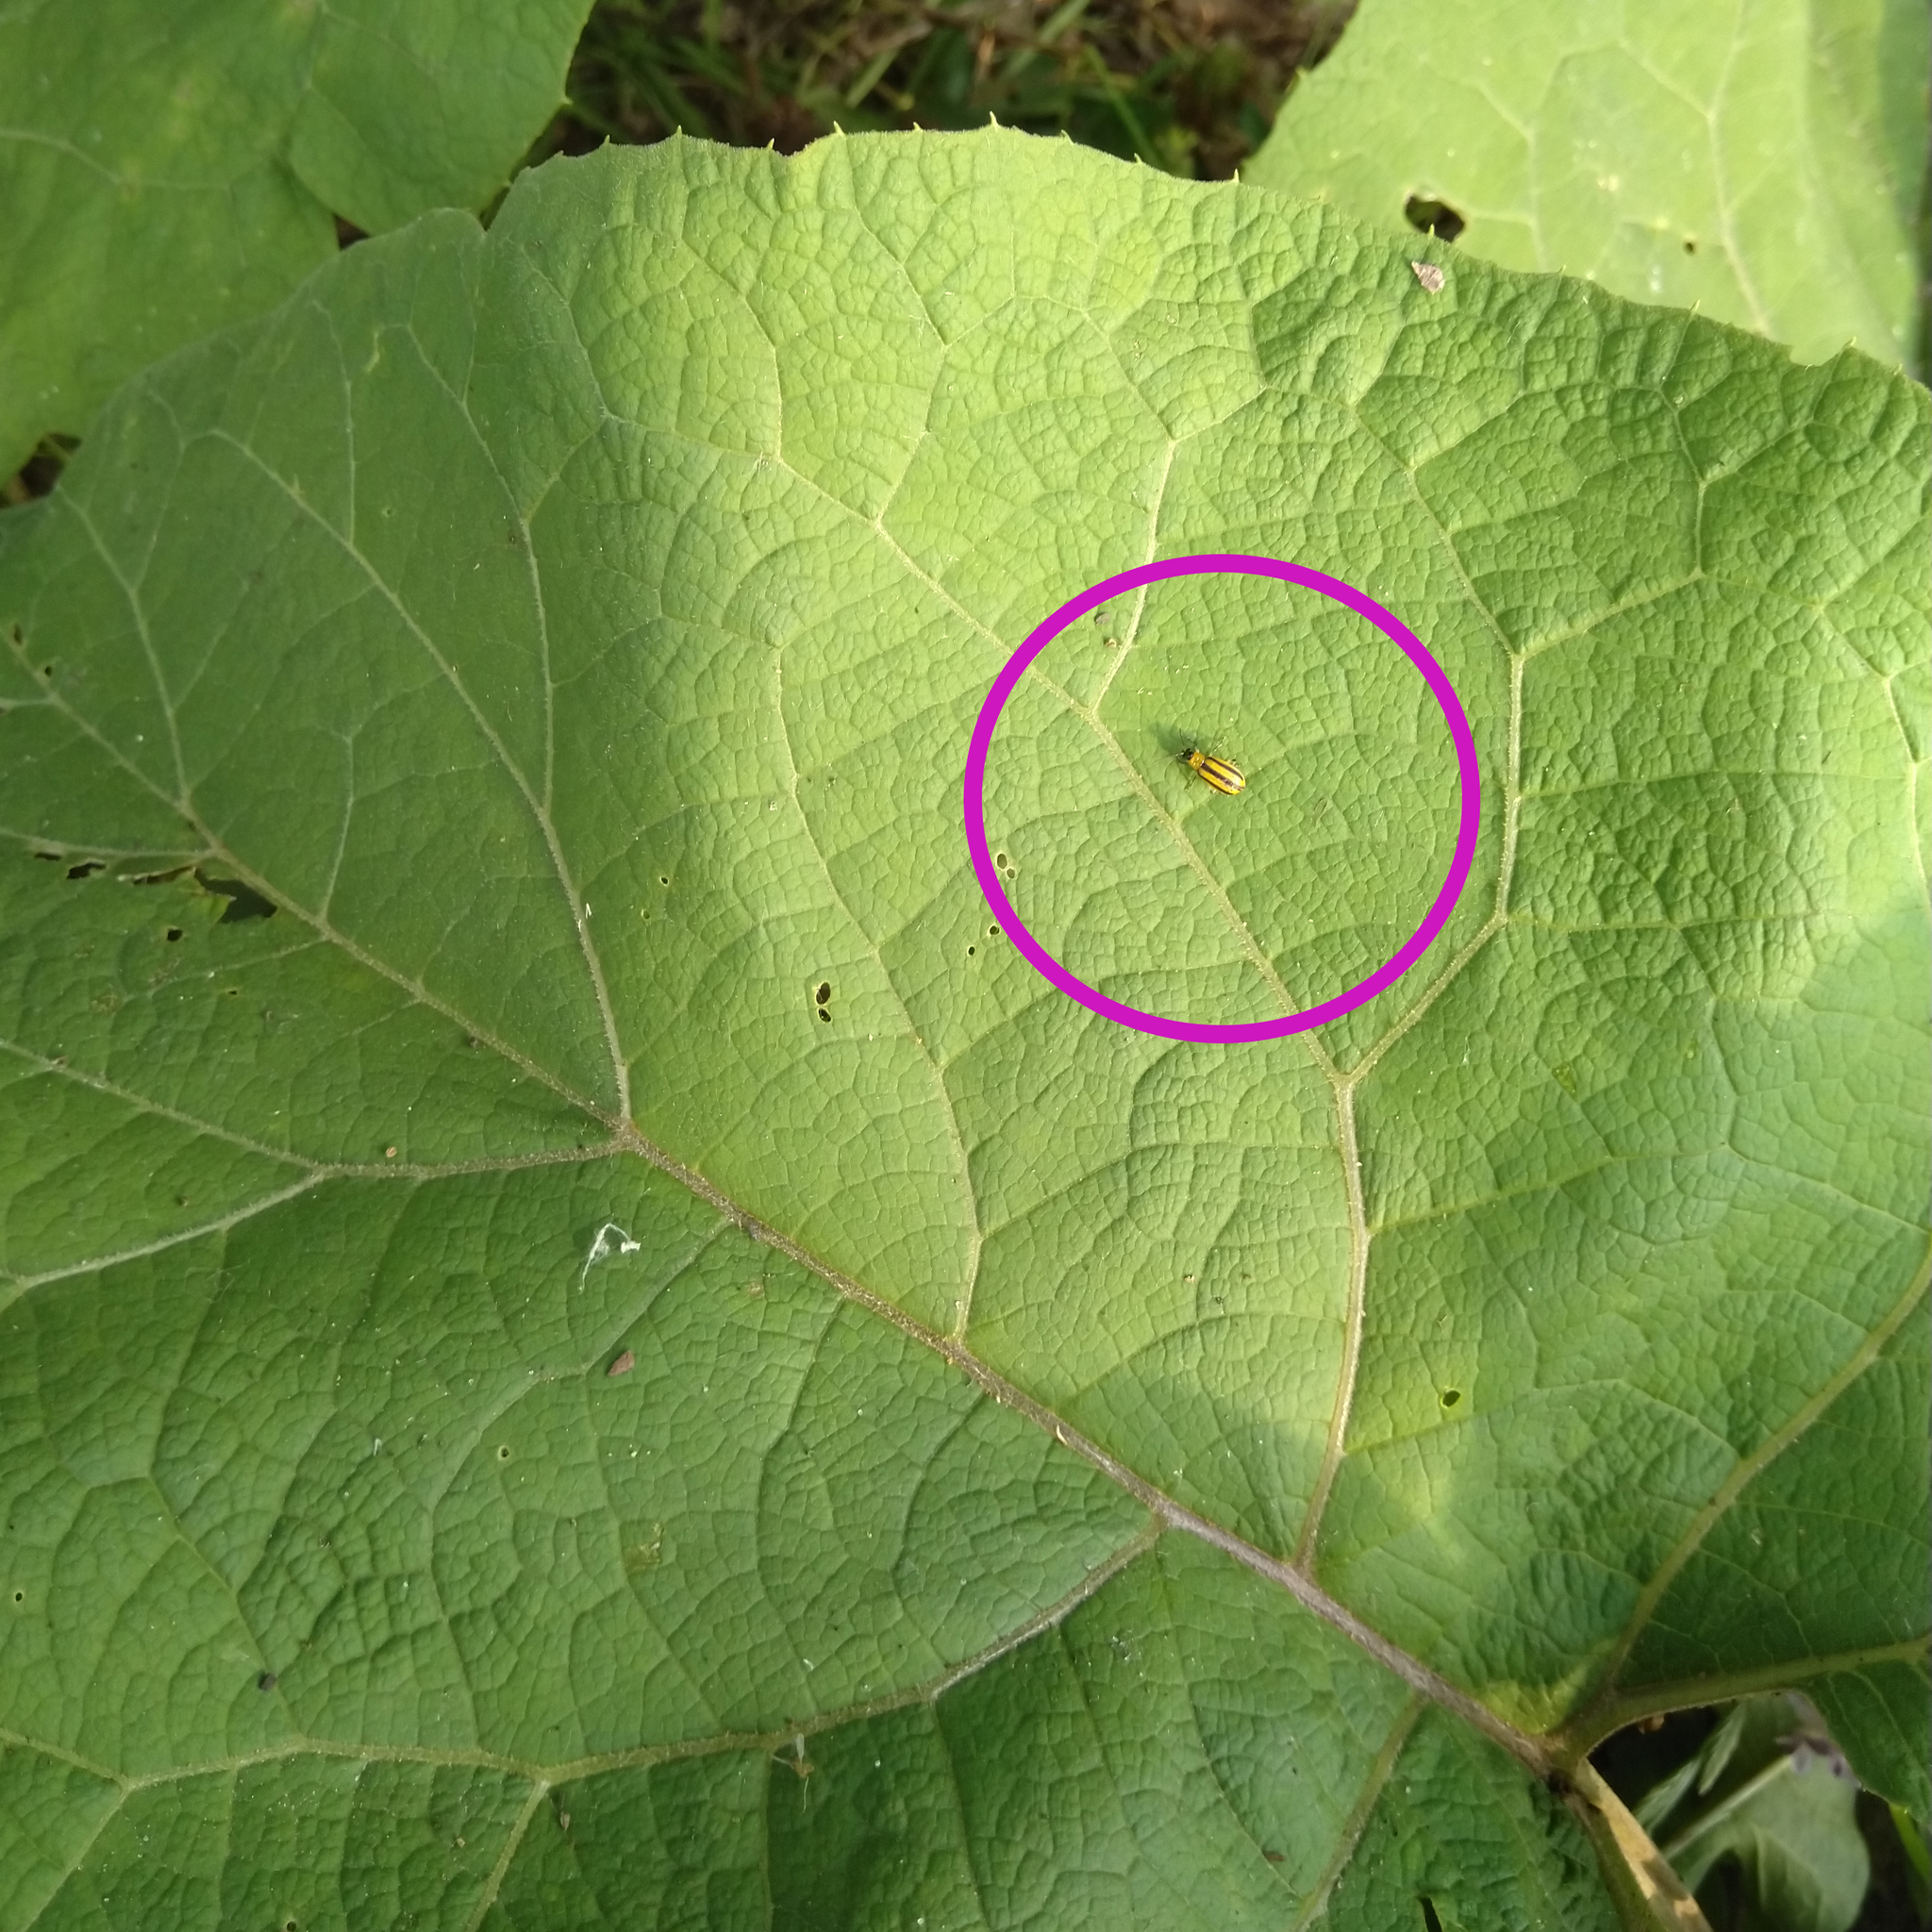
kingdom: Animalia
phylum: Arthropoda
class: Insecta
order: Coleoptera
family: Chrysomelidae
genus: Acalymma
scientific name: Acalymma vittatum
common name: Striped cucumber beetle
